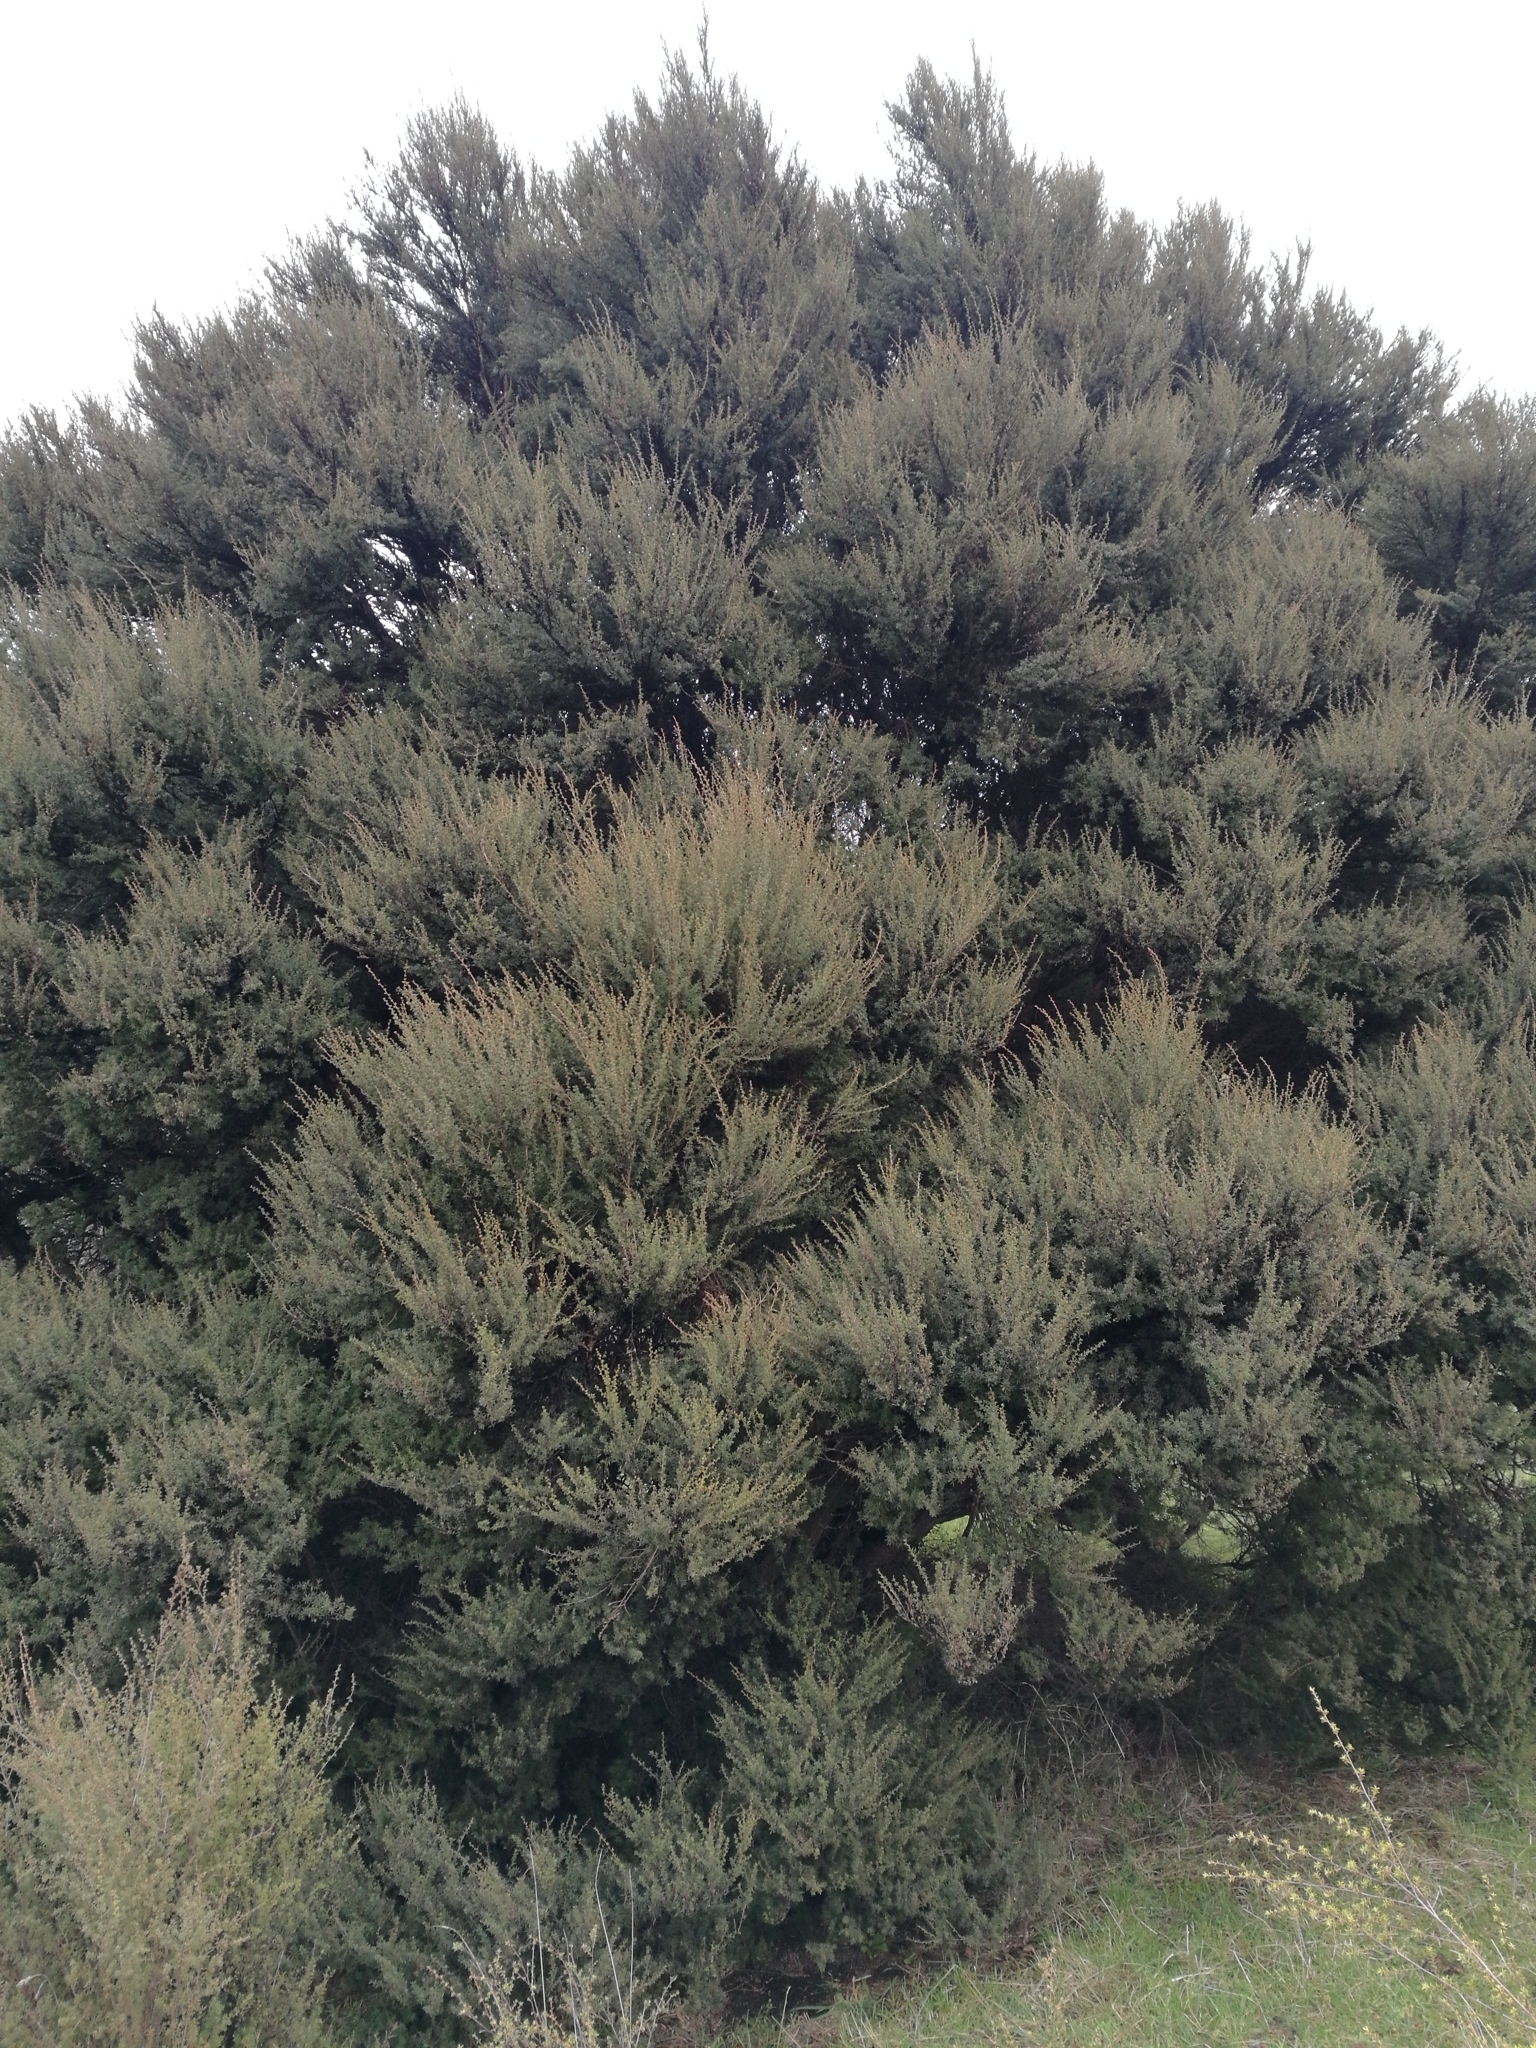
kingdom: Plantae
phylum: Tracheophyta
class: Magnoliopsida
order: Myrtales
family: Myrtaceae
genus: Leptospermum
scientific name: Leptospermum scoparium
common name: Broom tea-tree
